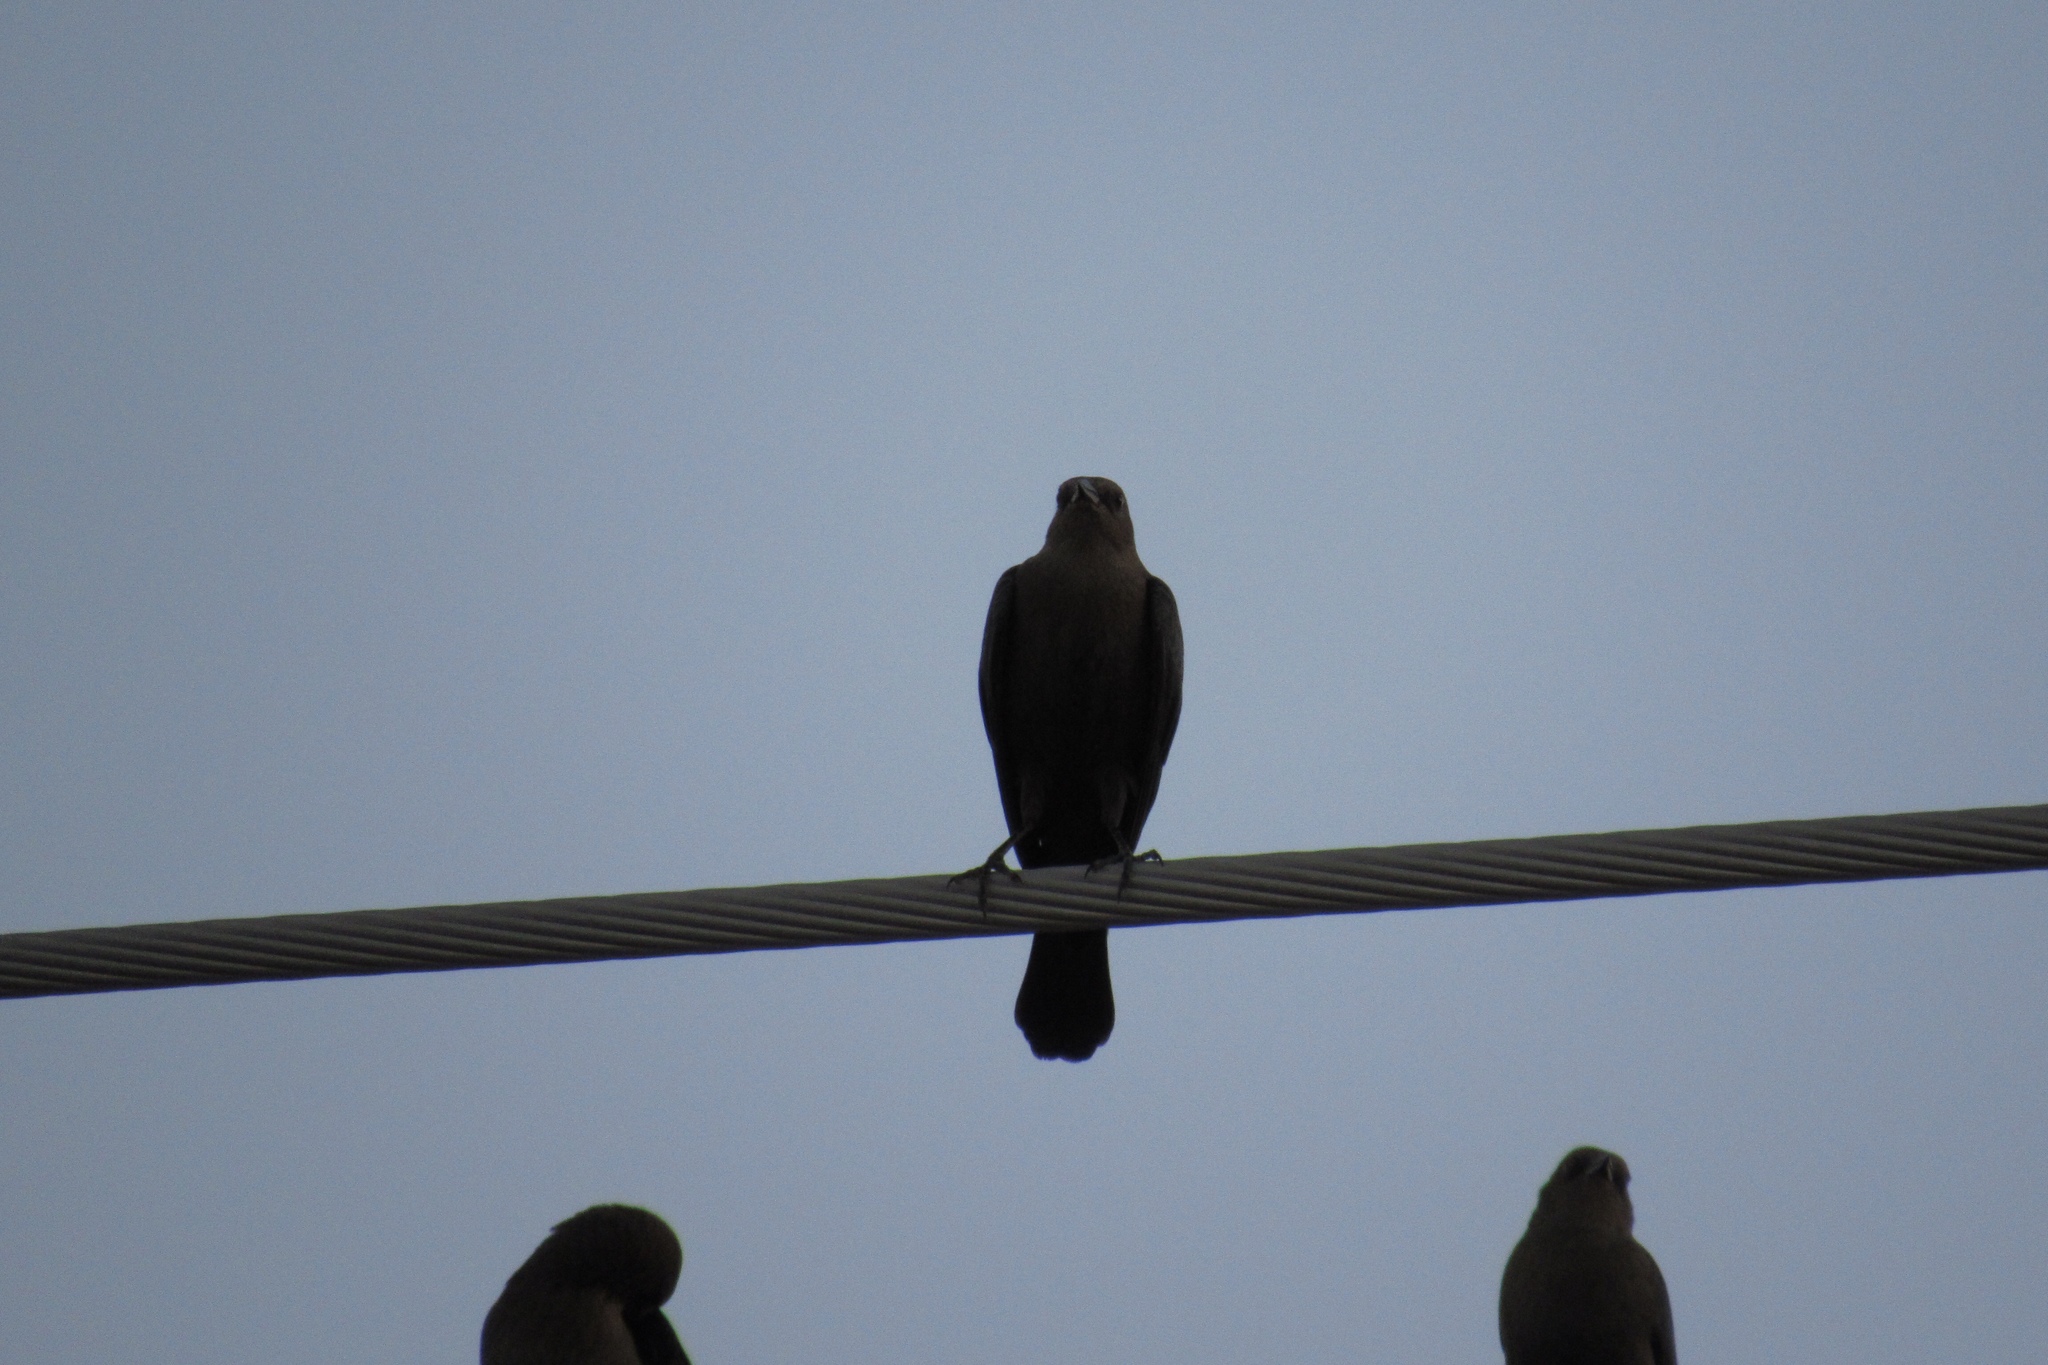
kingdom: Animalia
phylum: Chordata
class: Aves
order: Passeriformes
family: Icteridae
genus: Molothrus
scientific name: Molothrus ater
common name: Brown-headed cowbird
